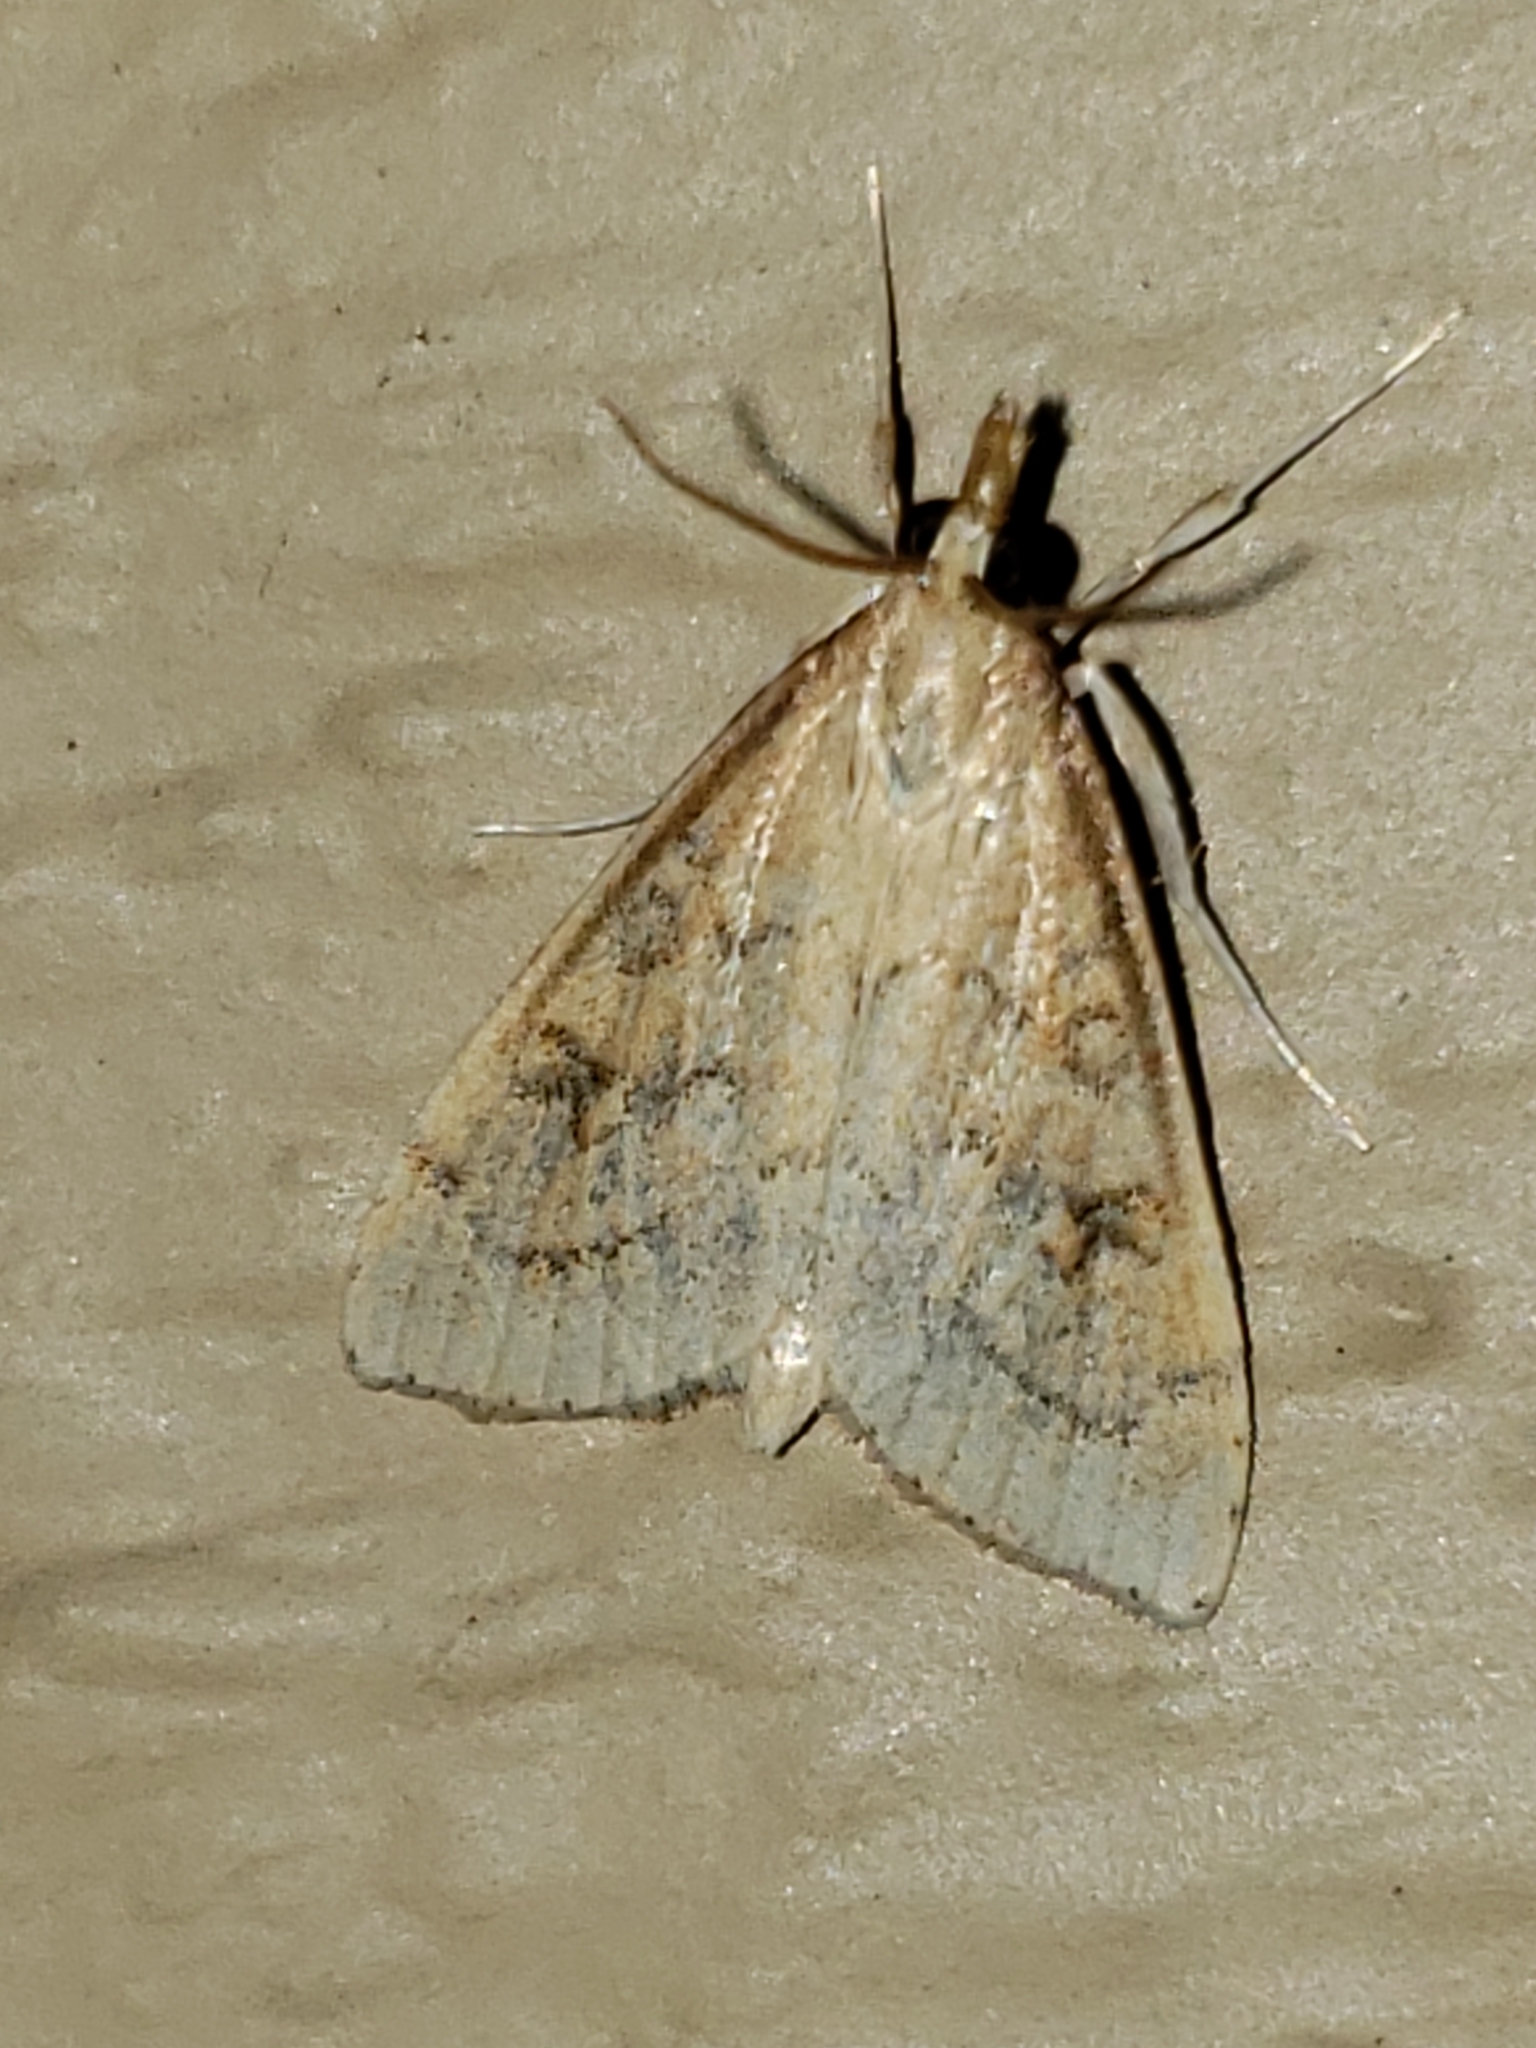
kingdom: Animalia
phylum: Arthropoda
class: Insecta
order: Lepidoptera
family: Crambidae
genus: Udea
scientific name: Udea rubigalis
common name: Celery leaftier moth
